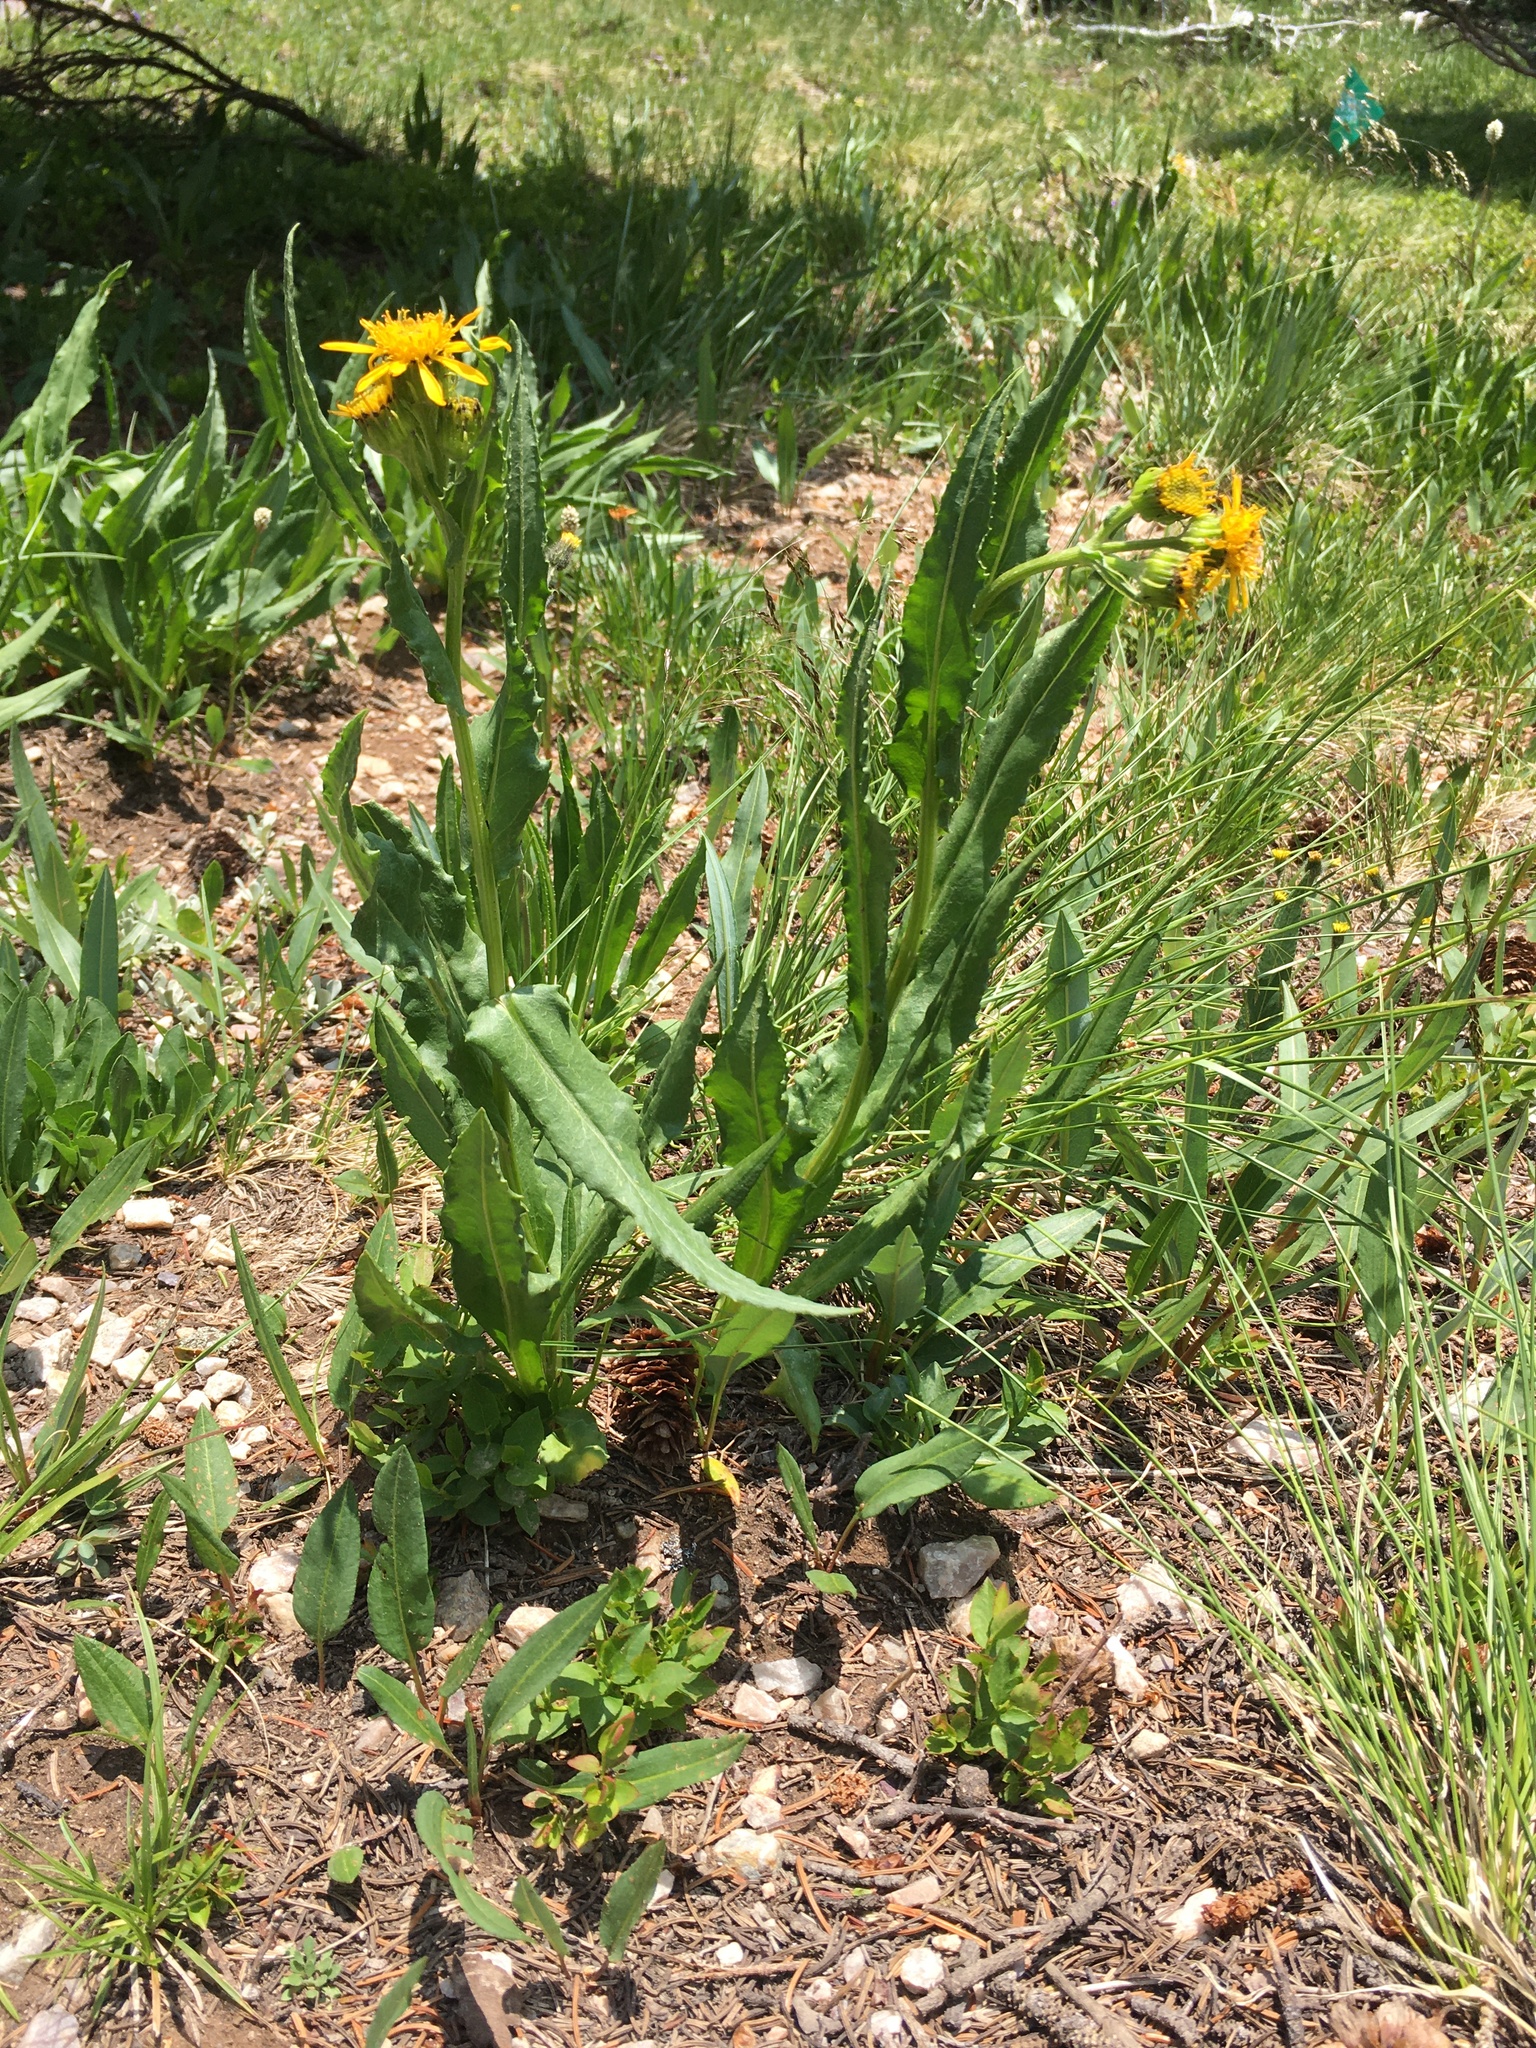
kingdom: Plantae
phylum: Tracheophyta
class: Magnoliopsida
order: Asterales
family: Asteraceae
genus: Senecio
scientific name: Senecio crassulus
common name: Mountain-meadow butterweed
